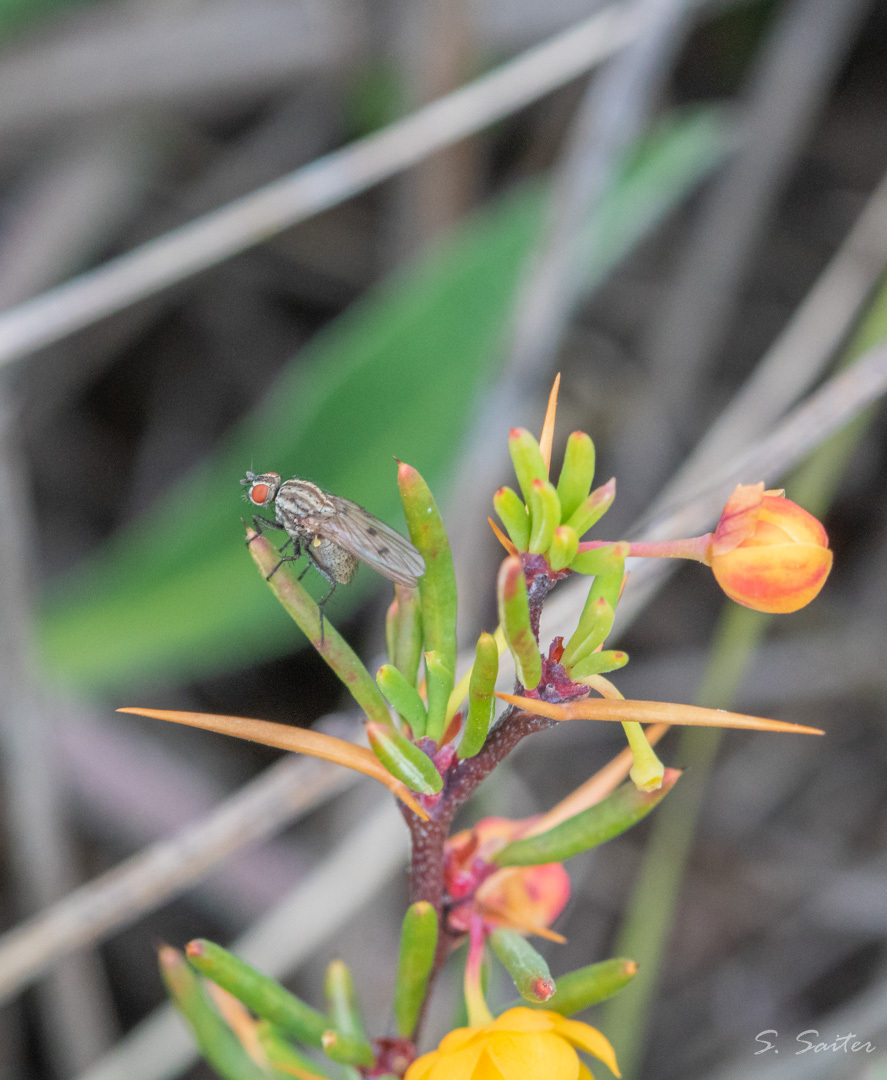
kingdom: Animalia
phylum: Arthropoda
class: Insecta
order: Diptera
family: Anthomyiidae
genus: Anthomyia
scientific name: Anthomyia punctipennis
